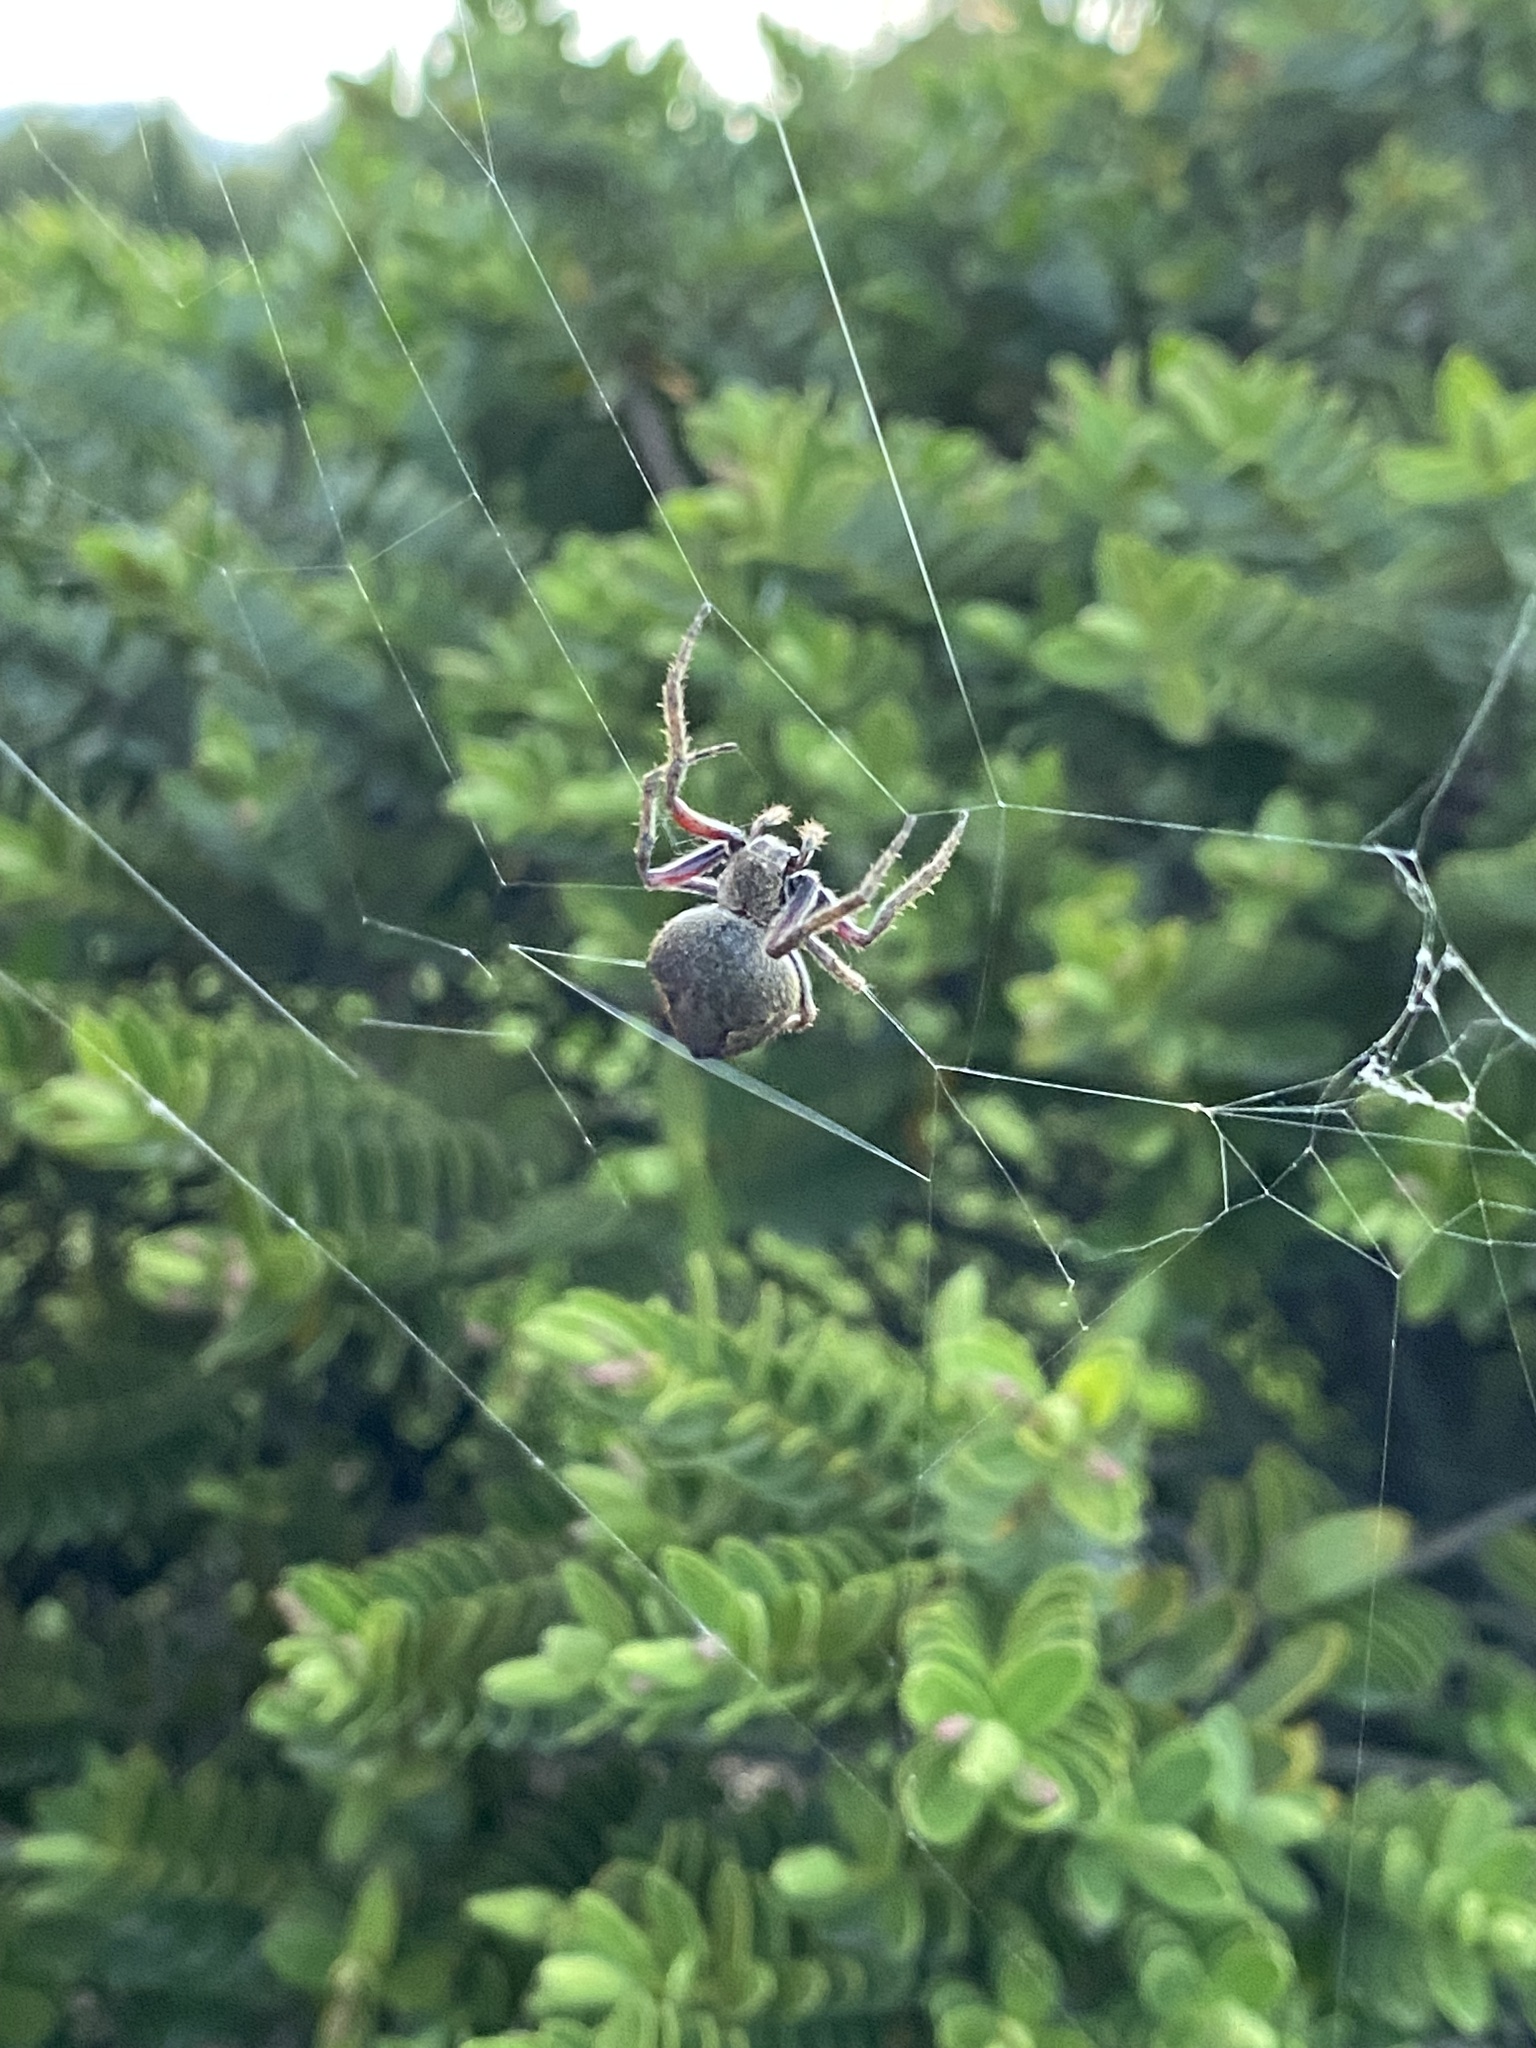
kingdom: Animalia
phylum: Arthropoda
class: Arachnida
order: Araneae
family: Araneidae
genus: Eriophora
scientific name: Eriophora pustulosa
